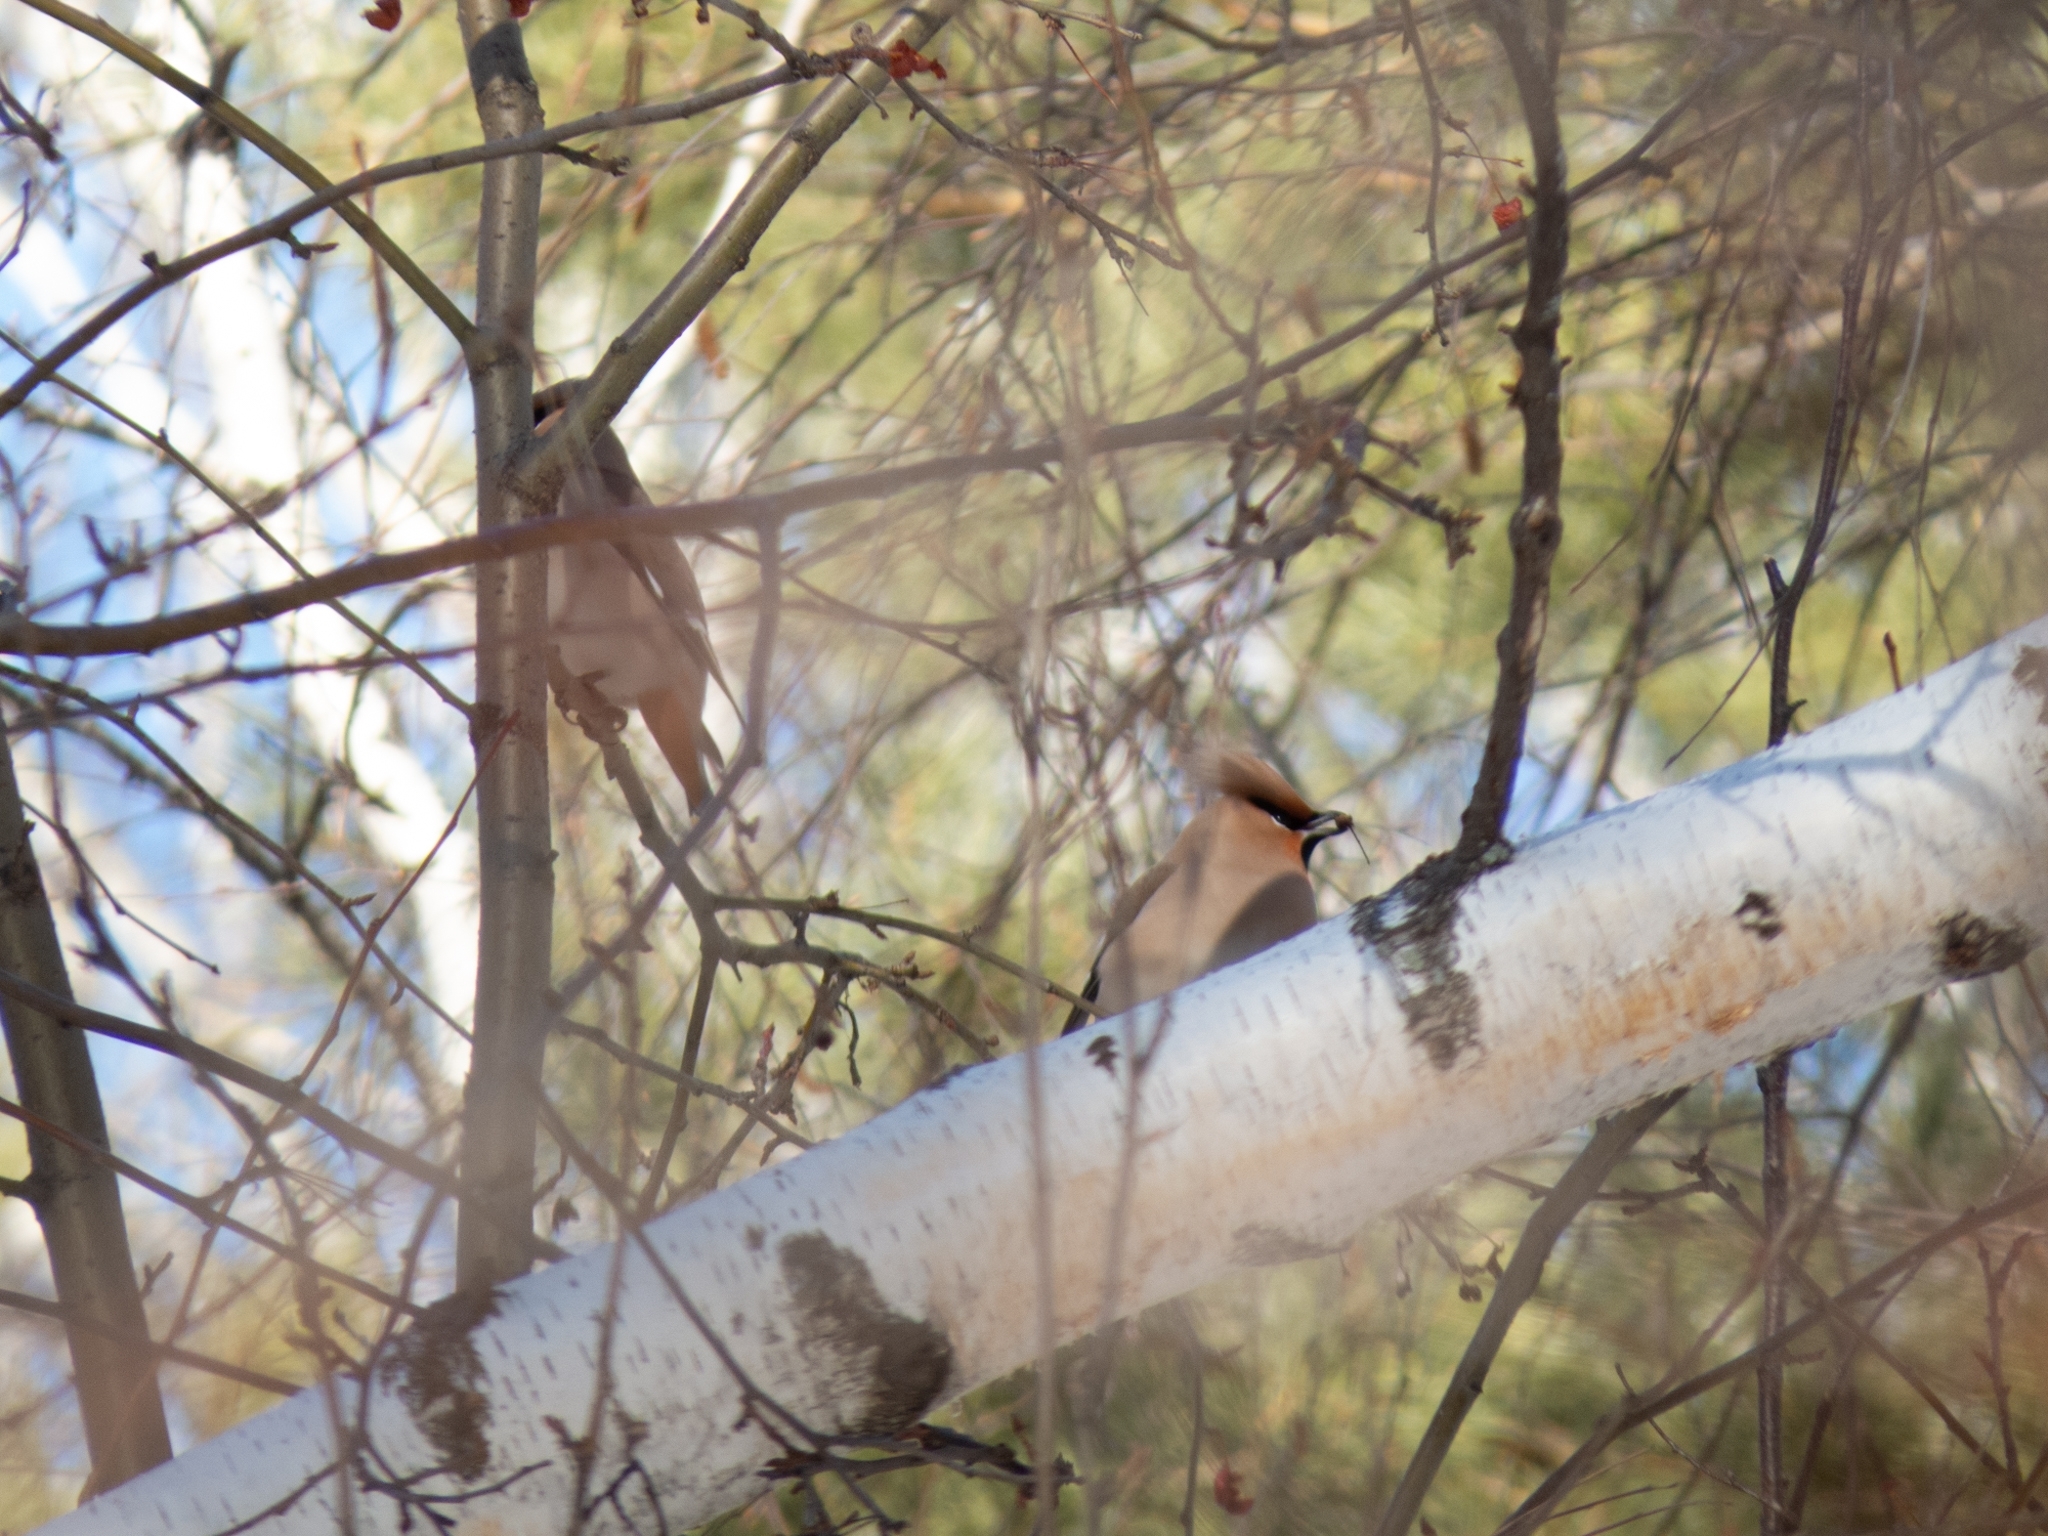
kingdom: Animalia
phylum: Chordata
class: Aves
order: Passeriformes
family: Bombycillidae
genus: Bombycilla
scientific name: Bombycilla garrulus
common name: Bohemian waxwing
